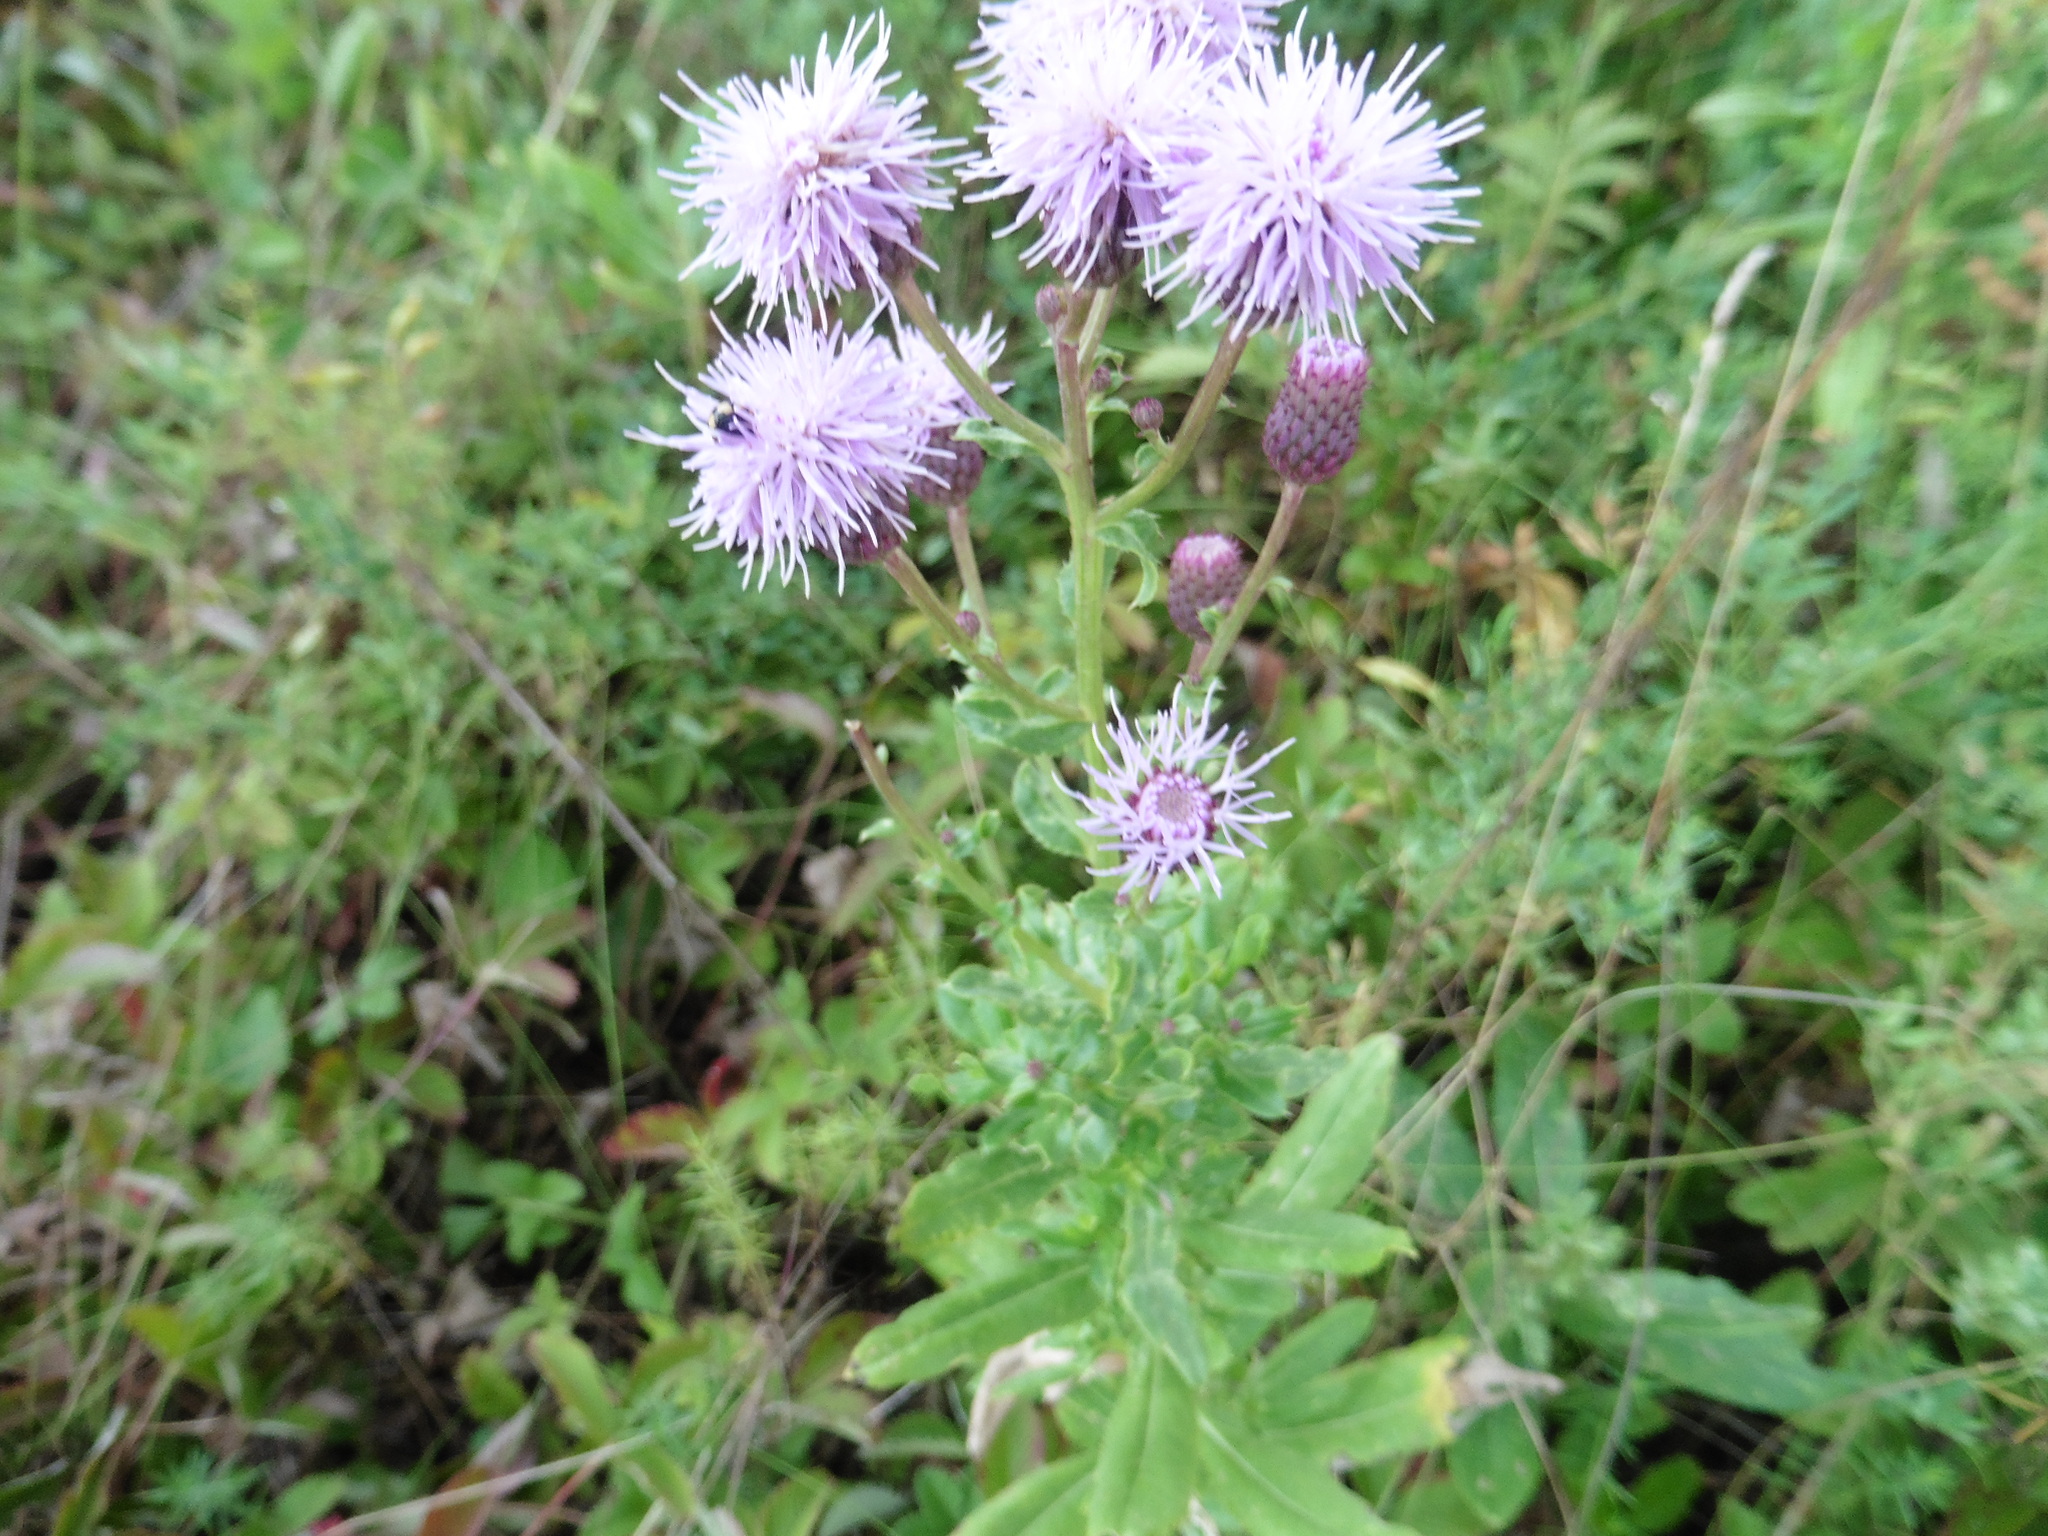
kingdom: Plantae
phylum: Tracheophyta
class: Magnoliopsida
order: Asterales
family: Asteraceae
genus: Cirsium
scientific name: Cirsium arvense
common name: Creeping thistle
